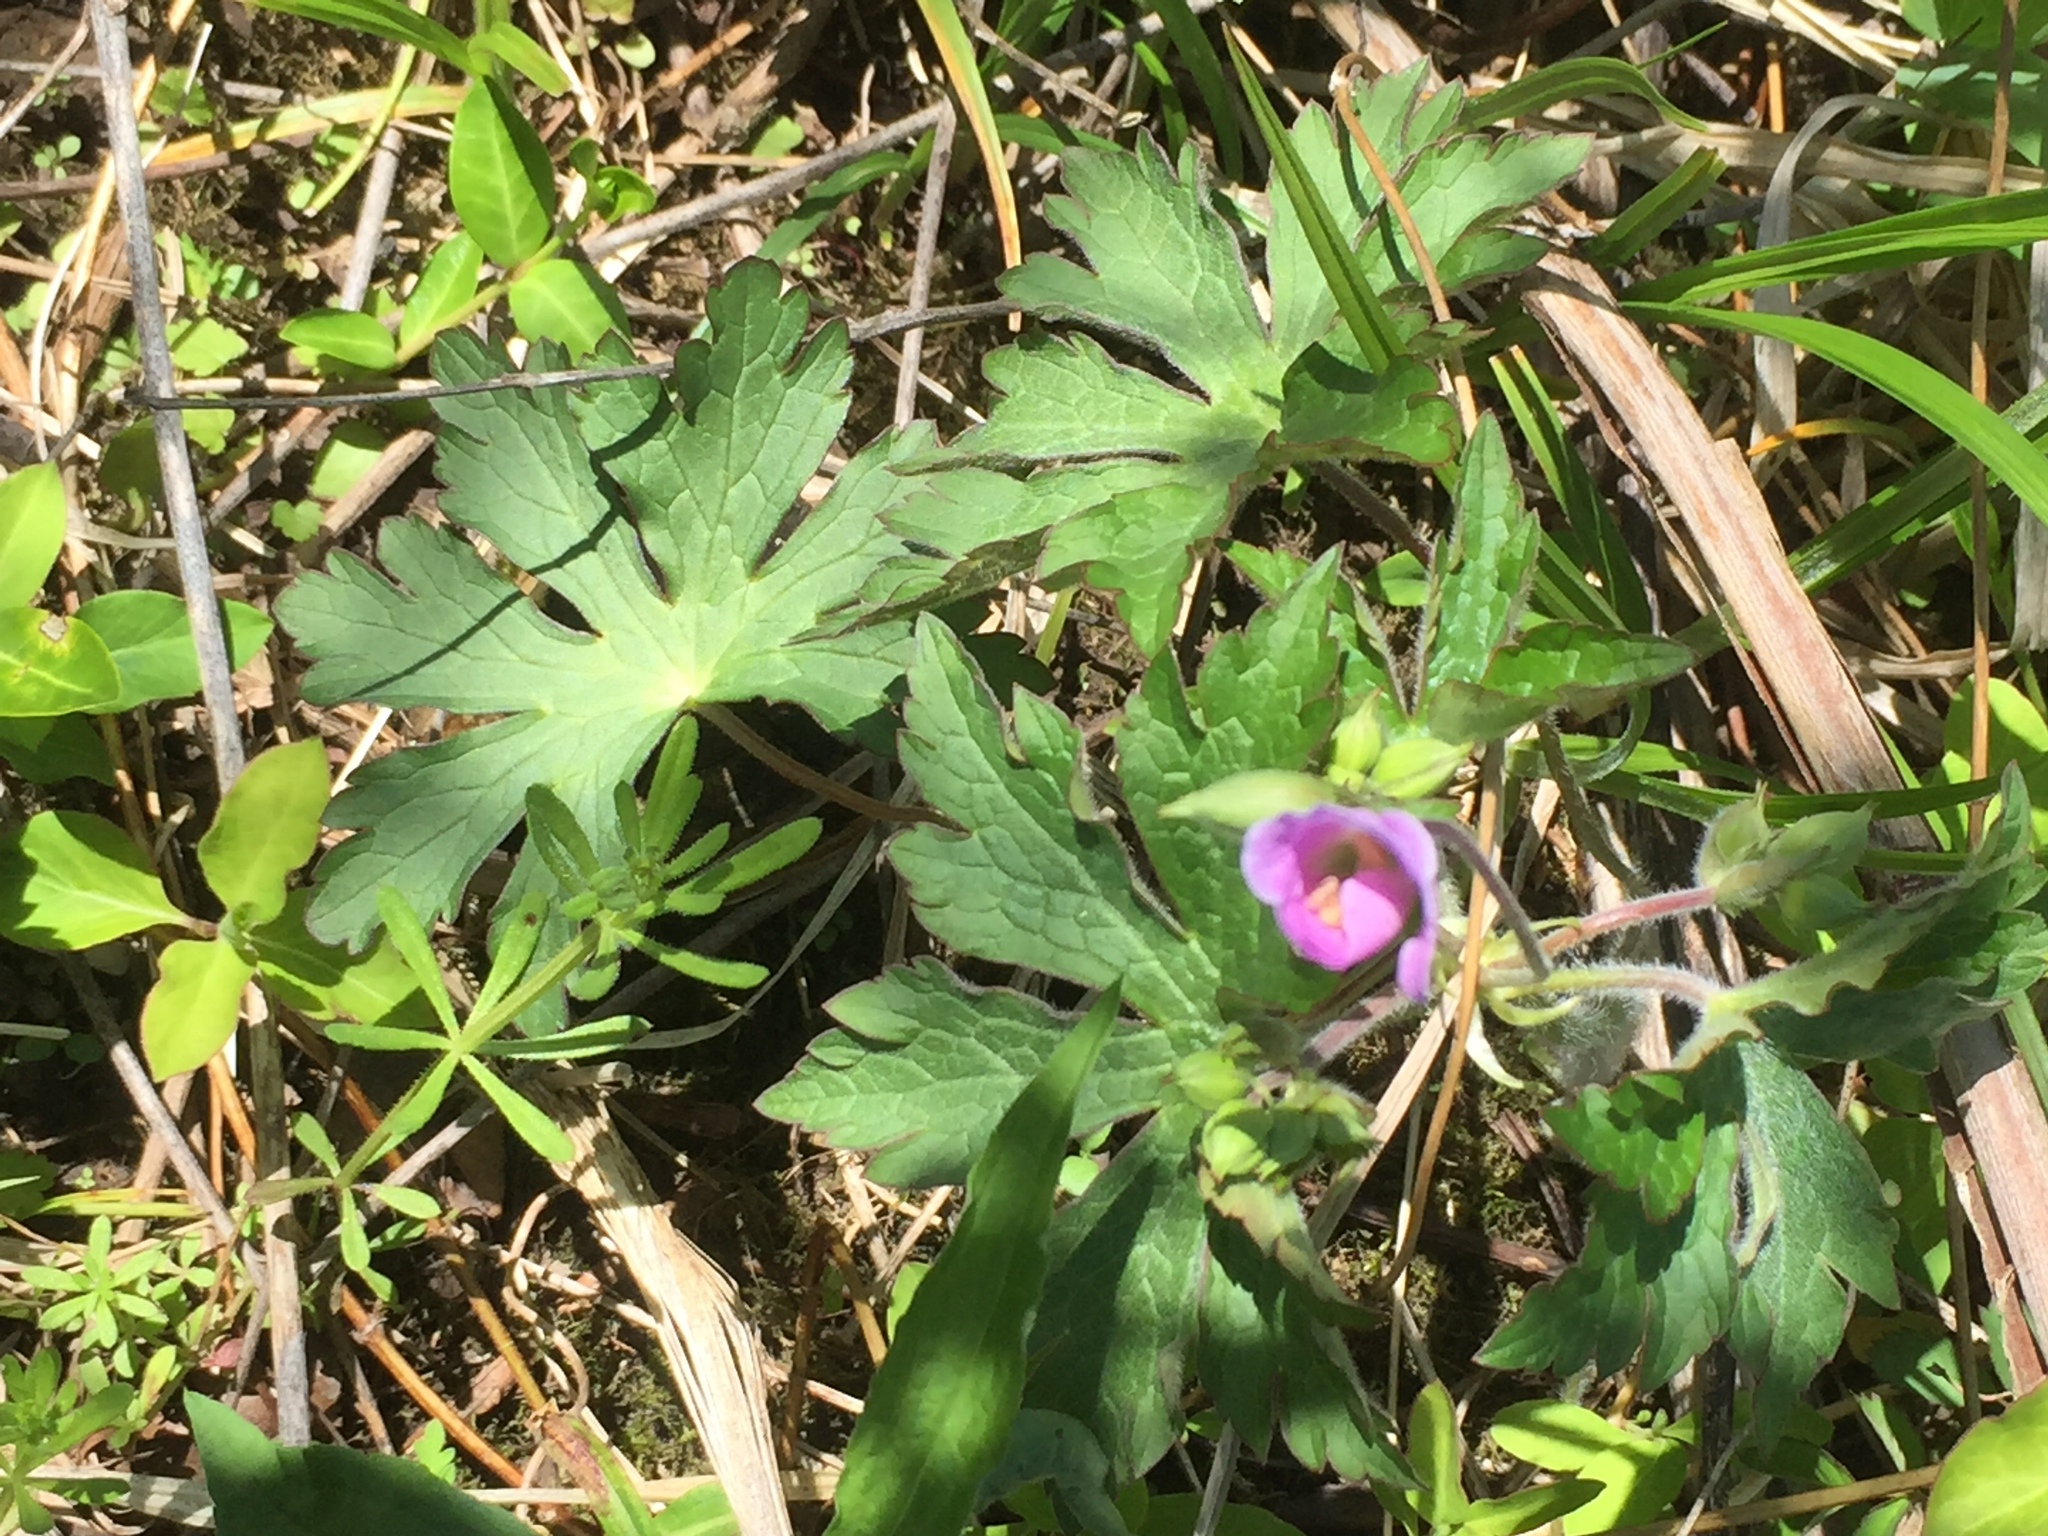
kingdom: Plantae
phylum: Tracheophyta
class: Magnoliopsida
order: Geraniales
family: Geraniaceae
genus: Geranium
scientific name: Geranium maculatum
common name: Spotted geranium
